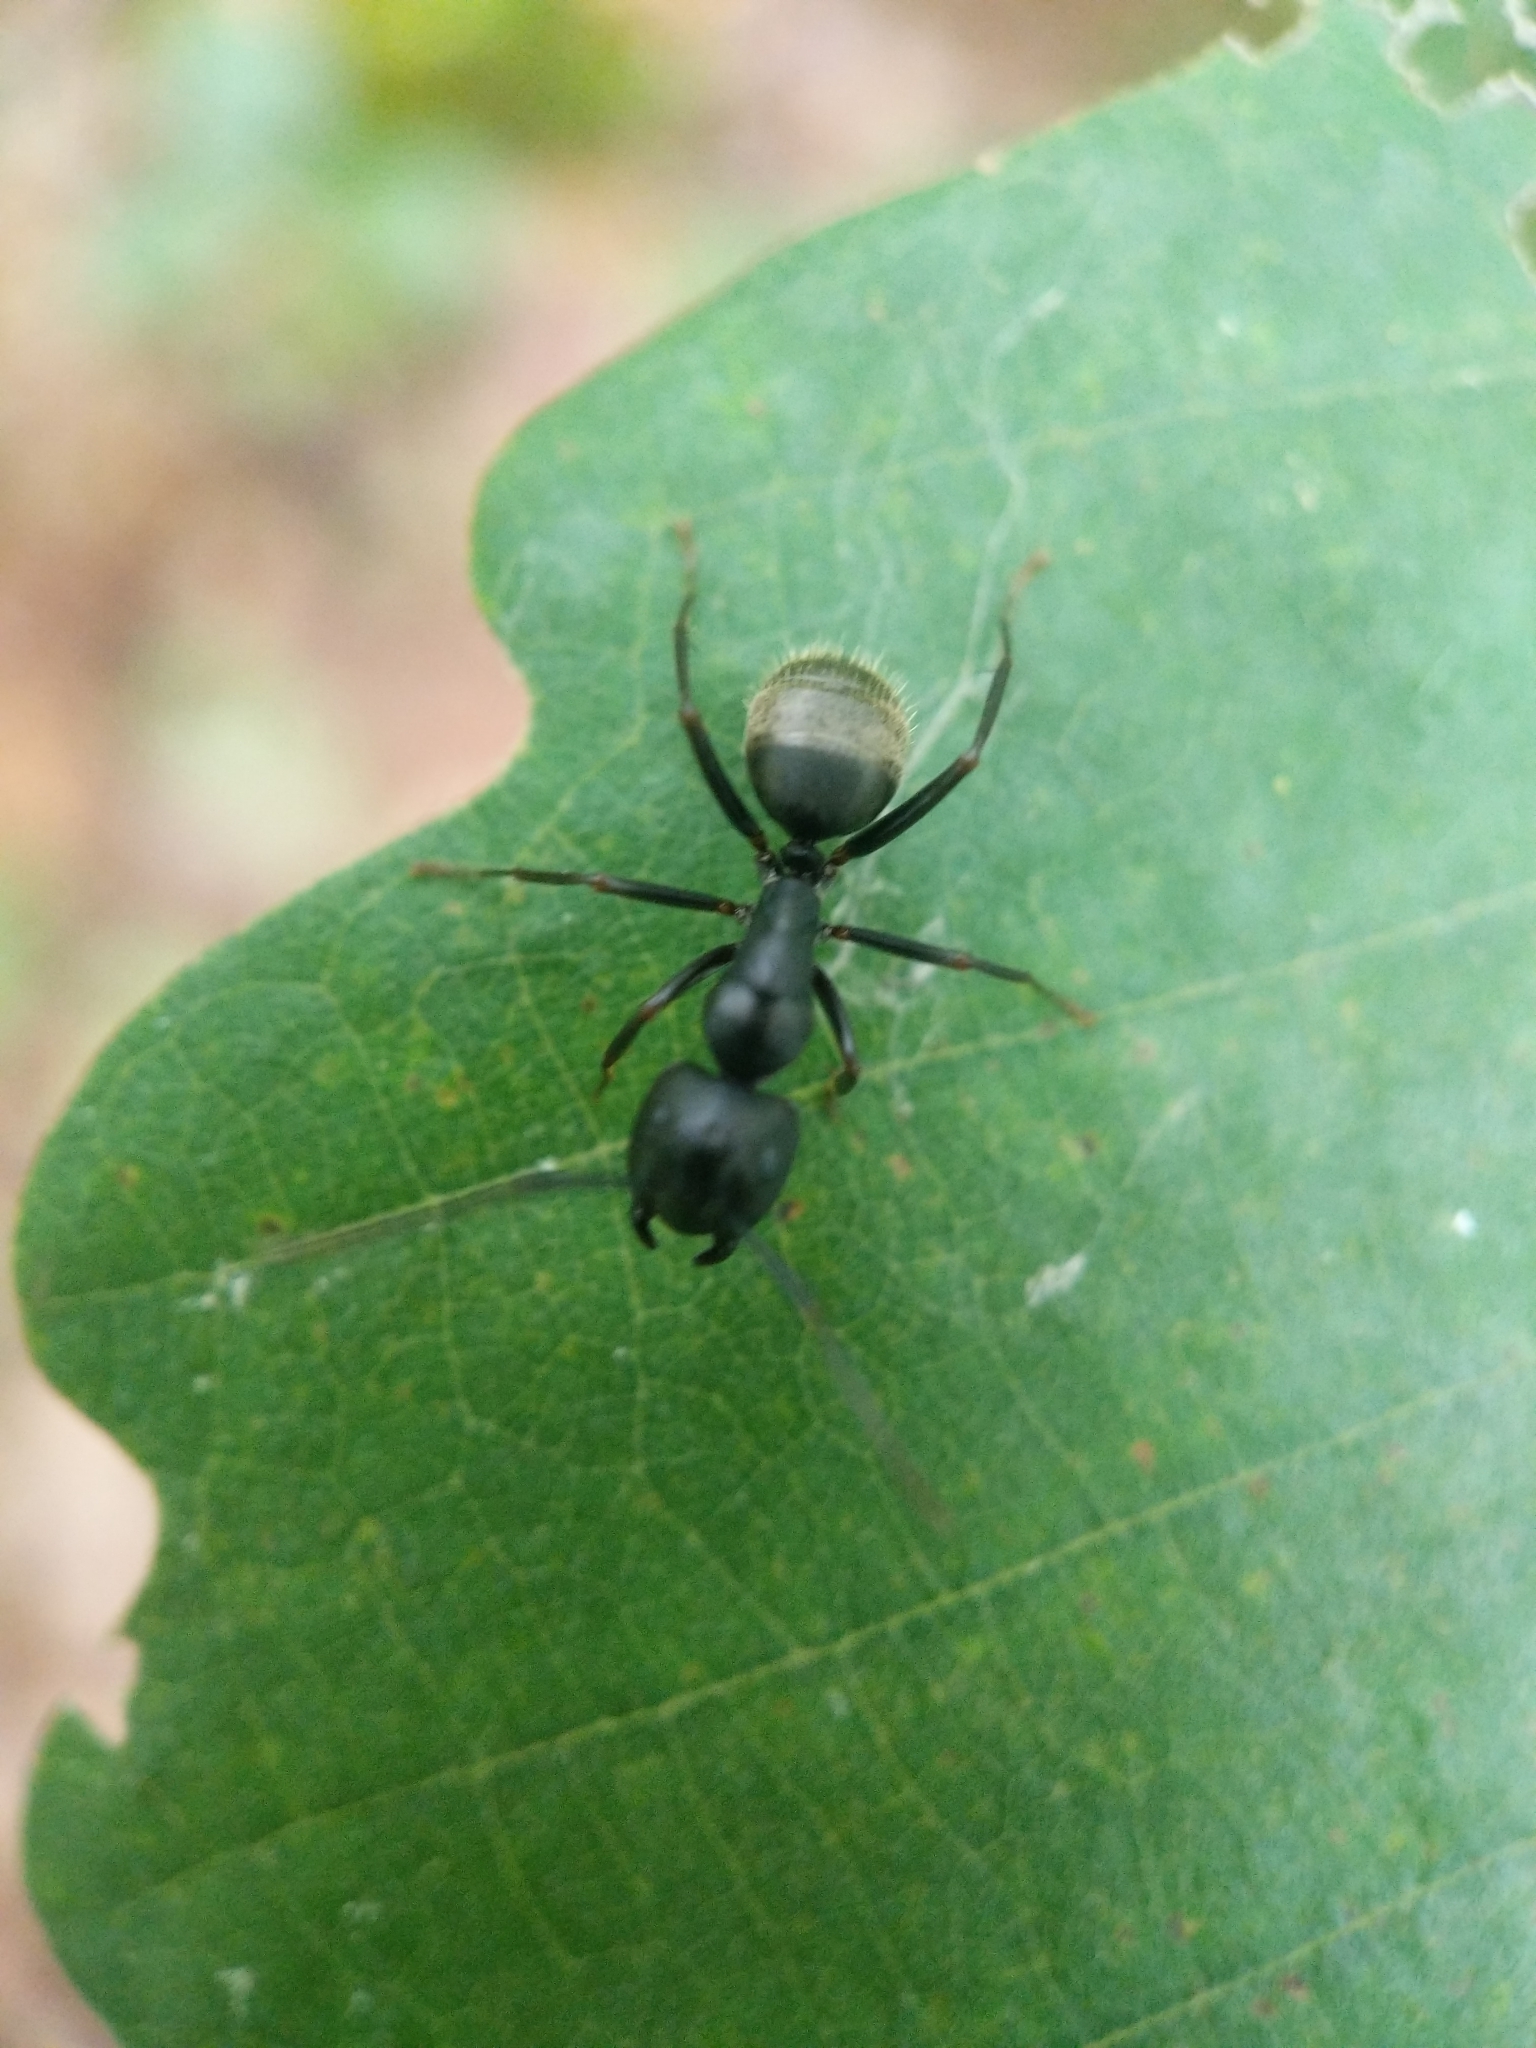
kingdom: Animalia
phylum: Arthropoda
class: Insecta
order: Hymenoptera
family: Formicidae
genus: Camponotus
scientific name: Camponotus pennsylvanicus
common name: Black carpenter ant
